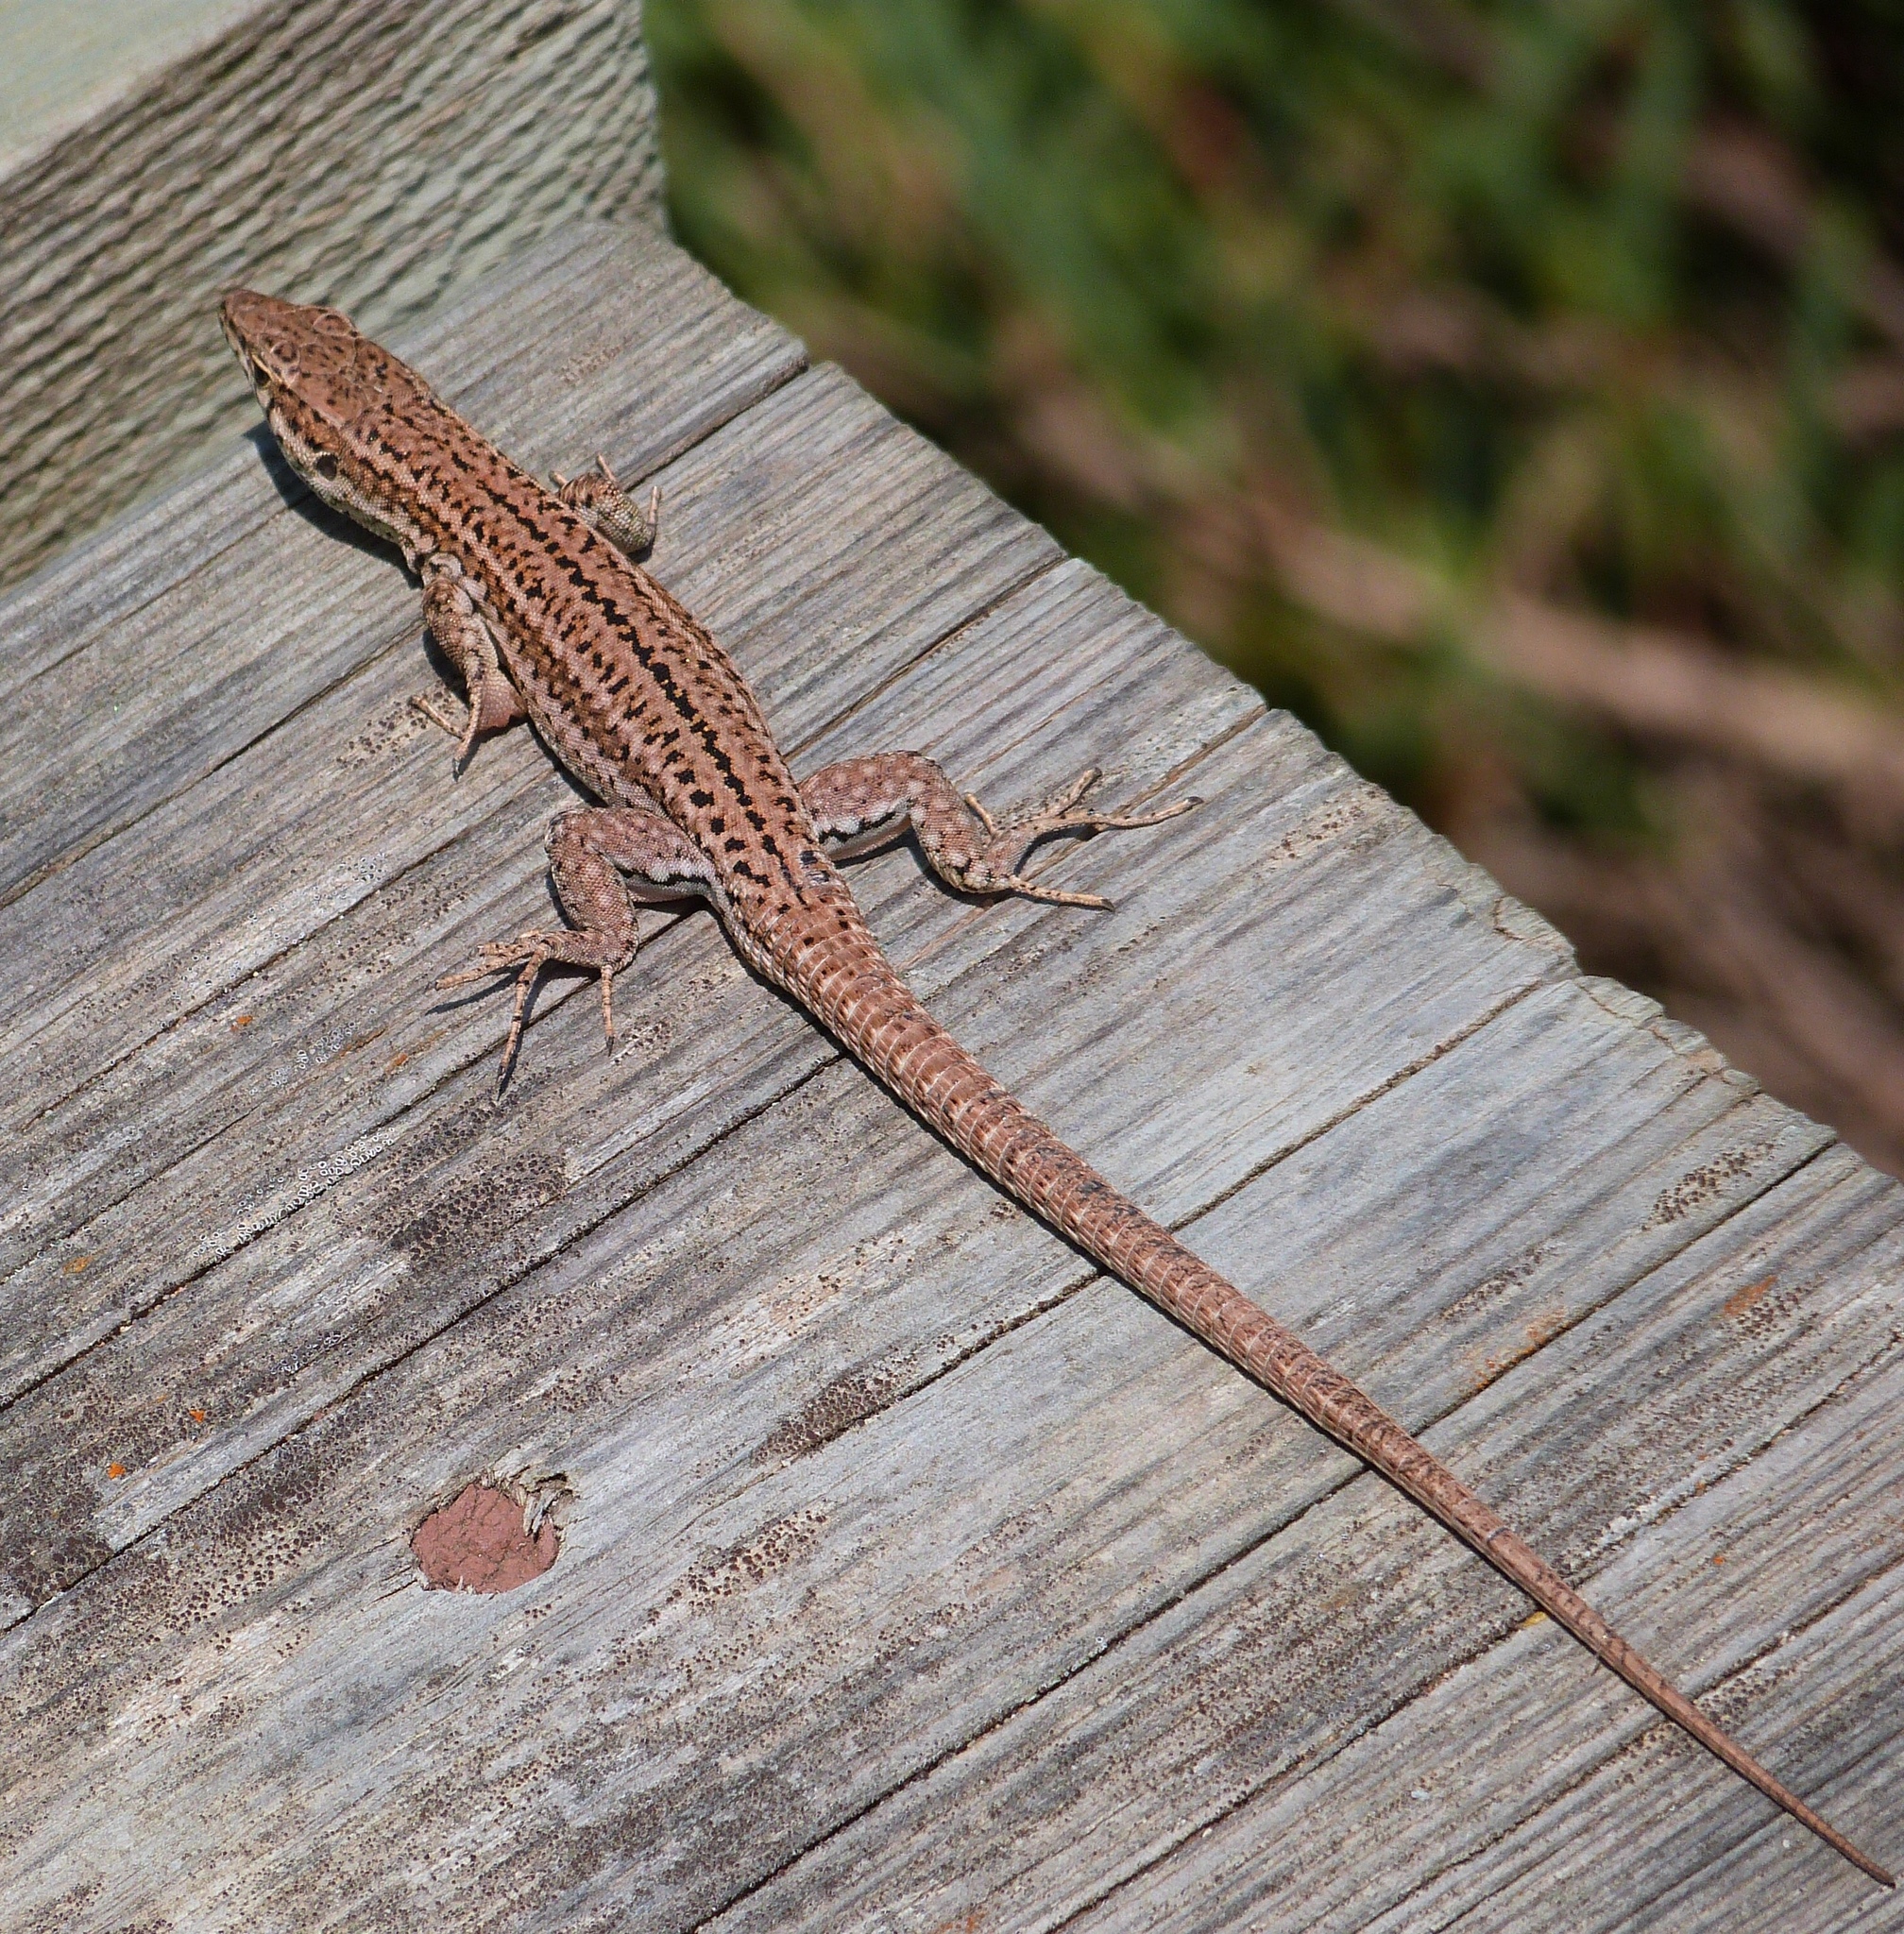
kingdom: Animalia
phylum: Chordata
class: Squamata
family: Lacertidae
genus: Podarcis
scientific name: Podarcis liolepis
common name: Catalonian wall lizard
